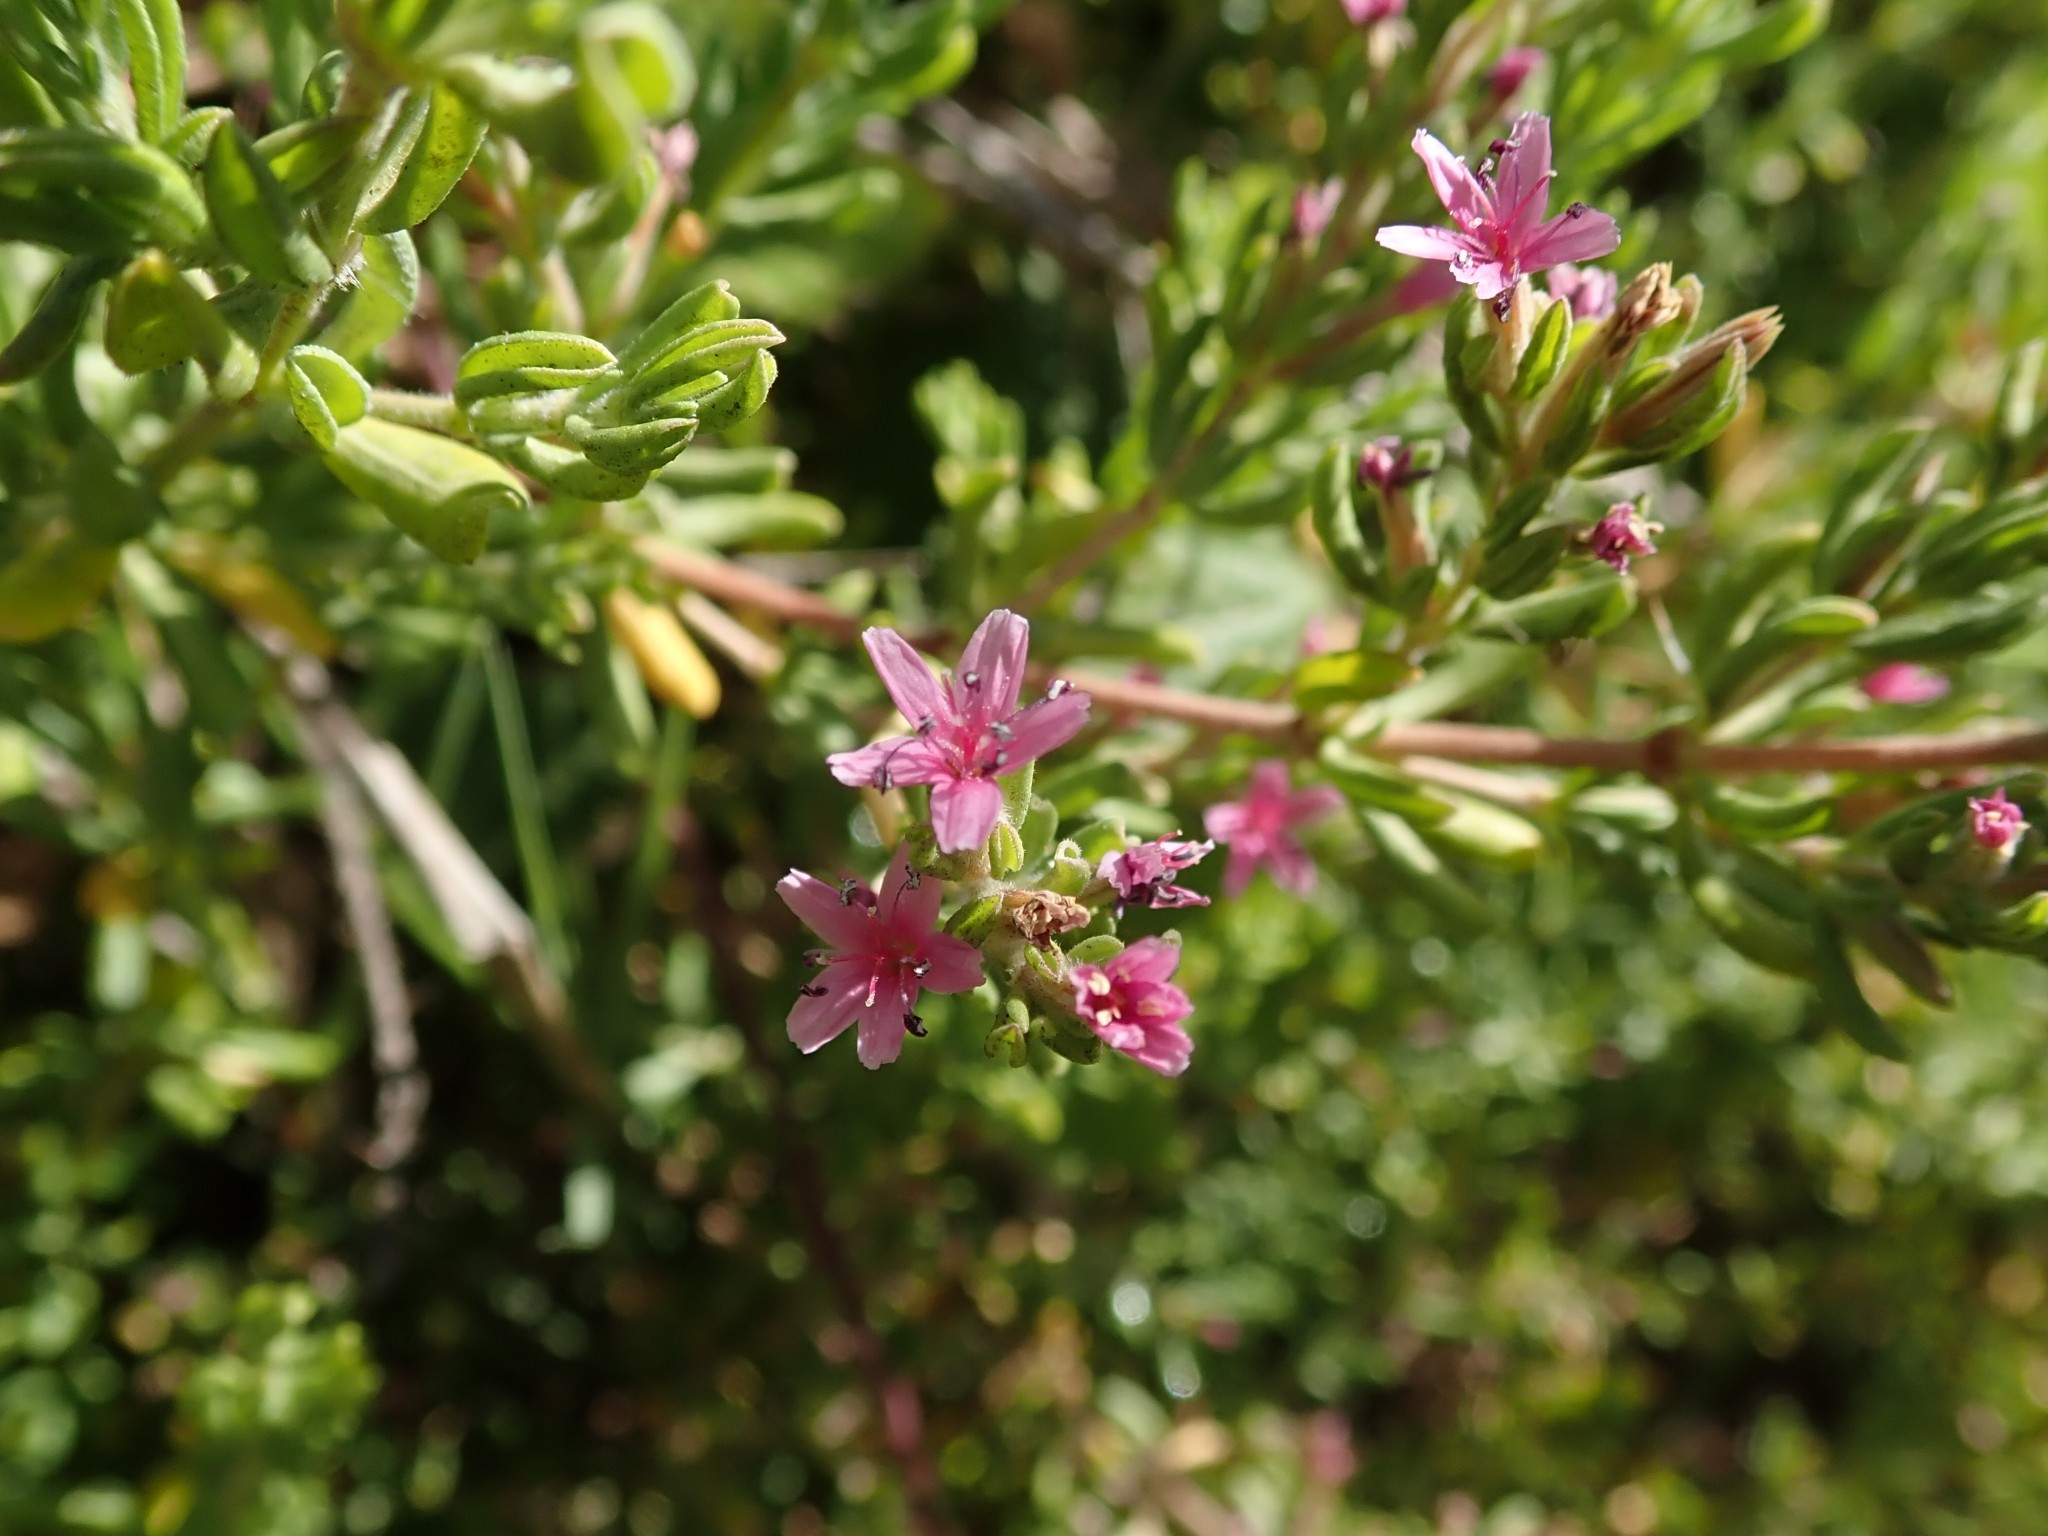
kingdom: Plantae
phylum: Tracheophyta
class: Magnoliopsida
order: Caryophyllales
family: Frankeniaceae
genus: Frankenia
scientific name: Frankenia salina
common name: Alkali seaheath
